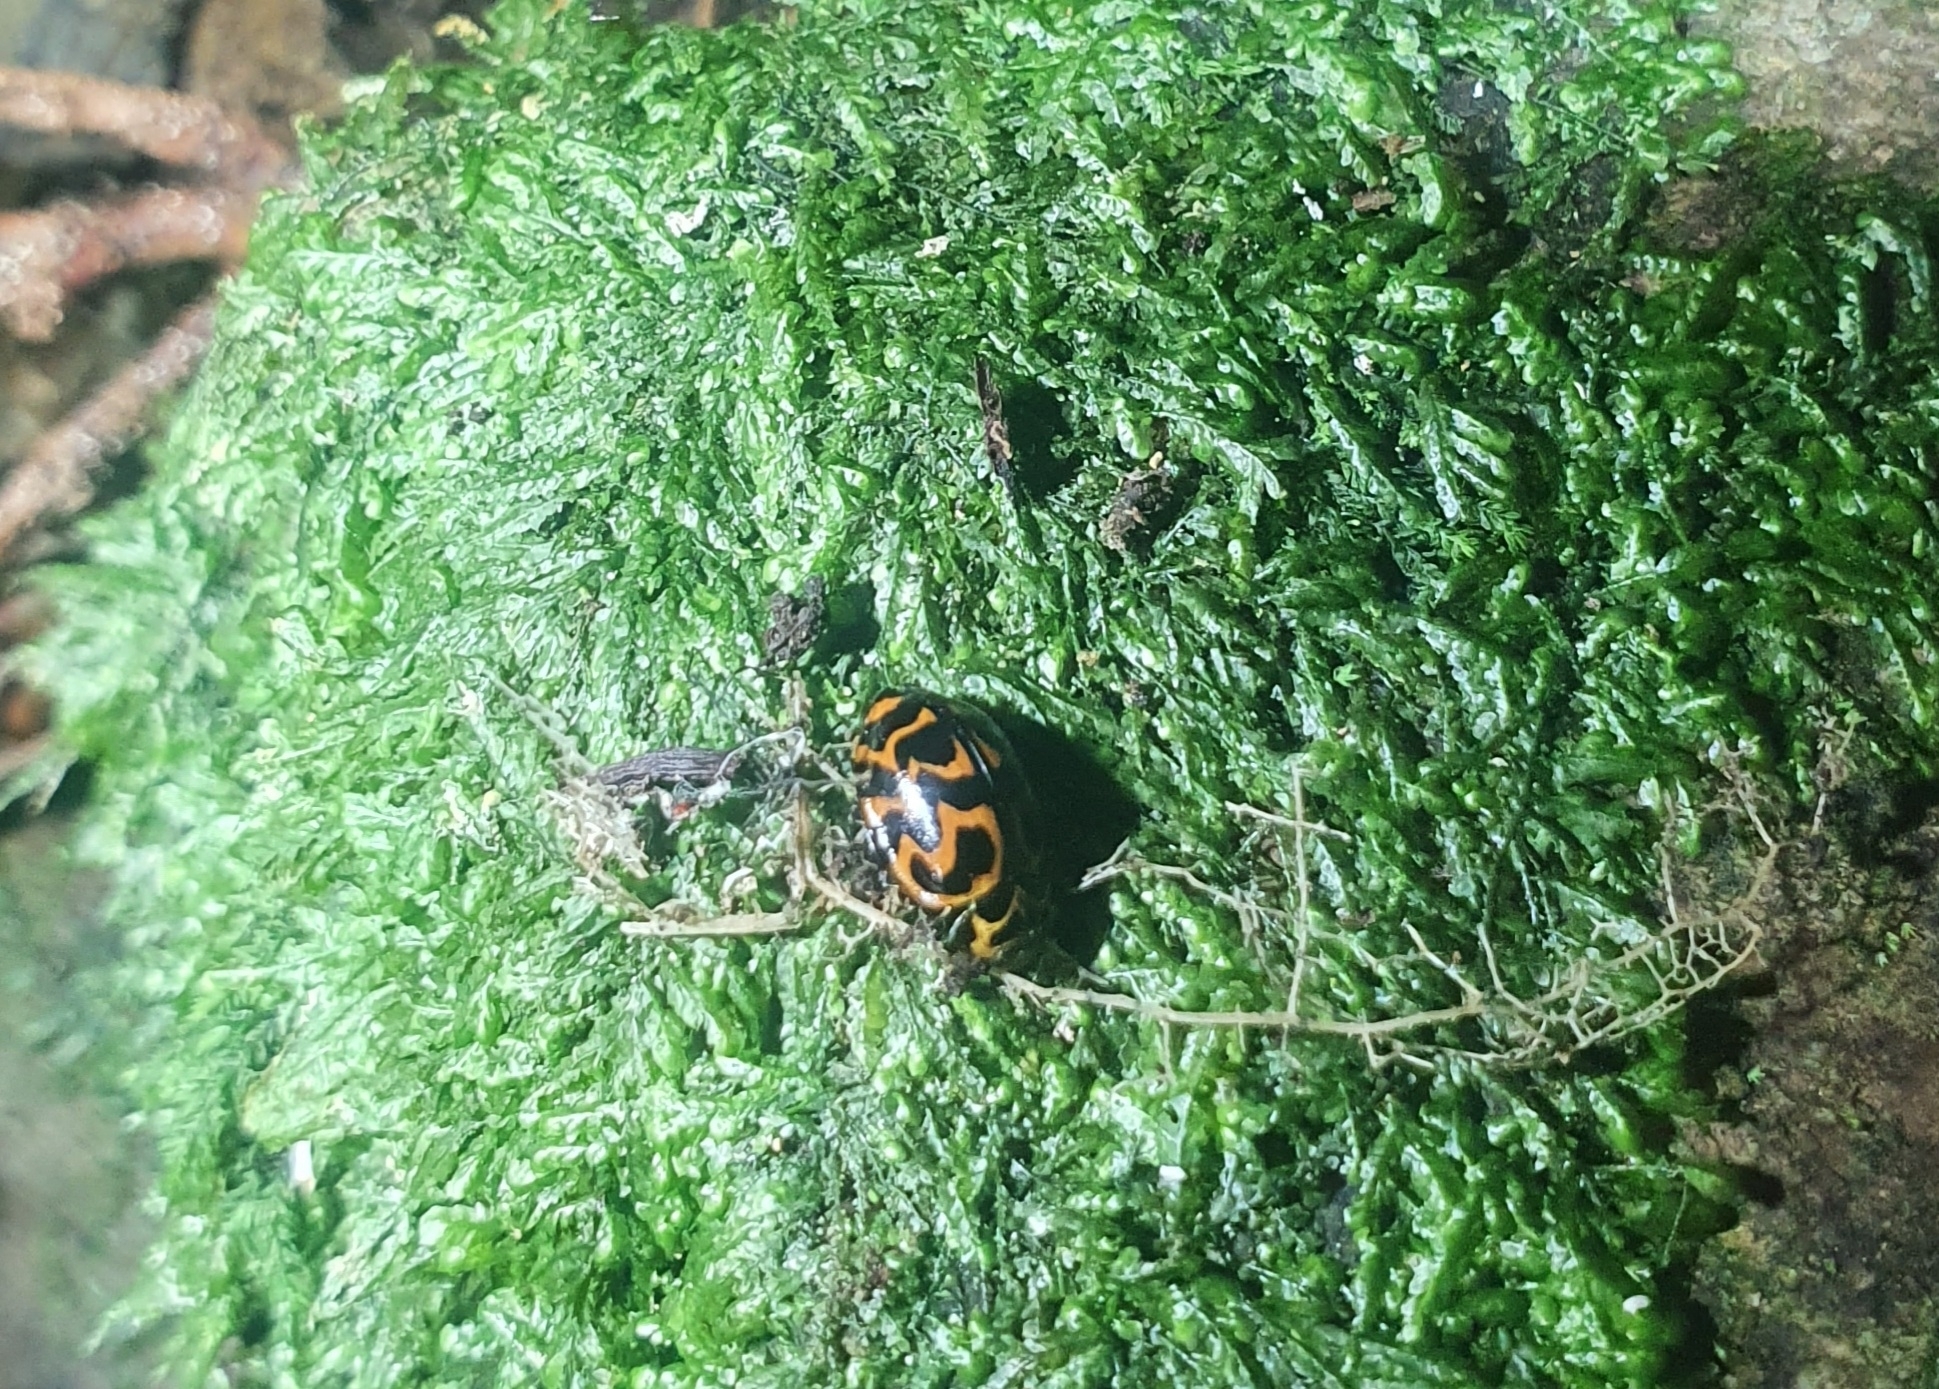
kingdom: Animalia
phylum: Arthropoda
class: Insecta
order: Coleoptera
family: Coccinellidae
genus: Cleobora
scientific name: Cleobora
